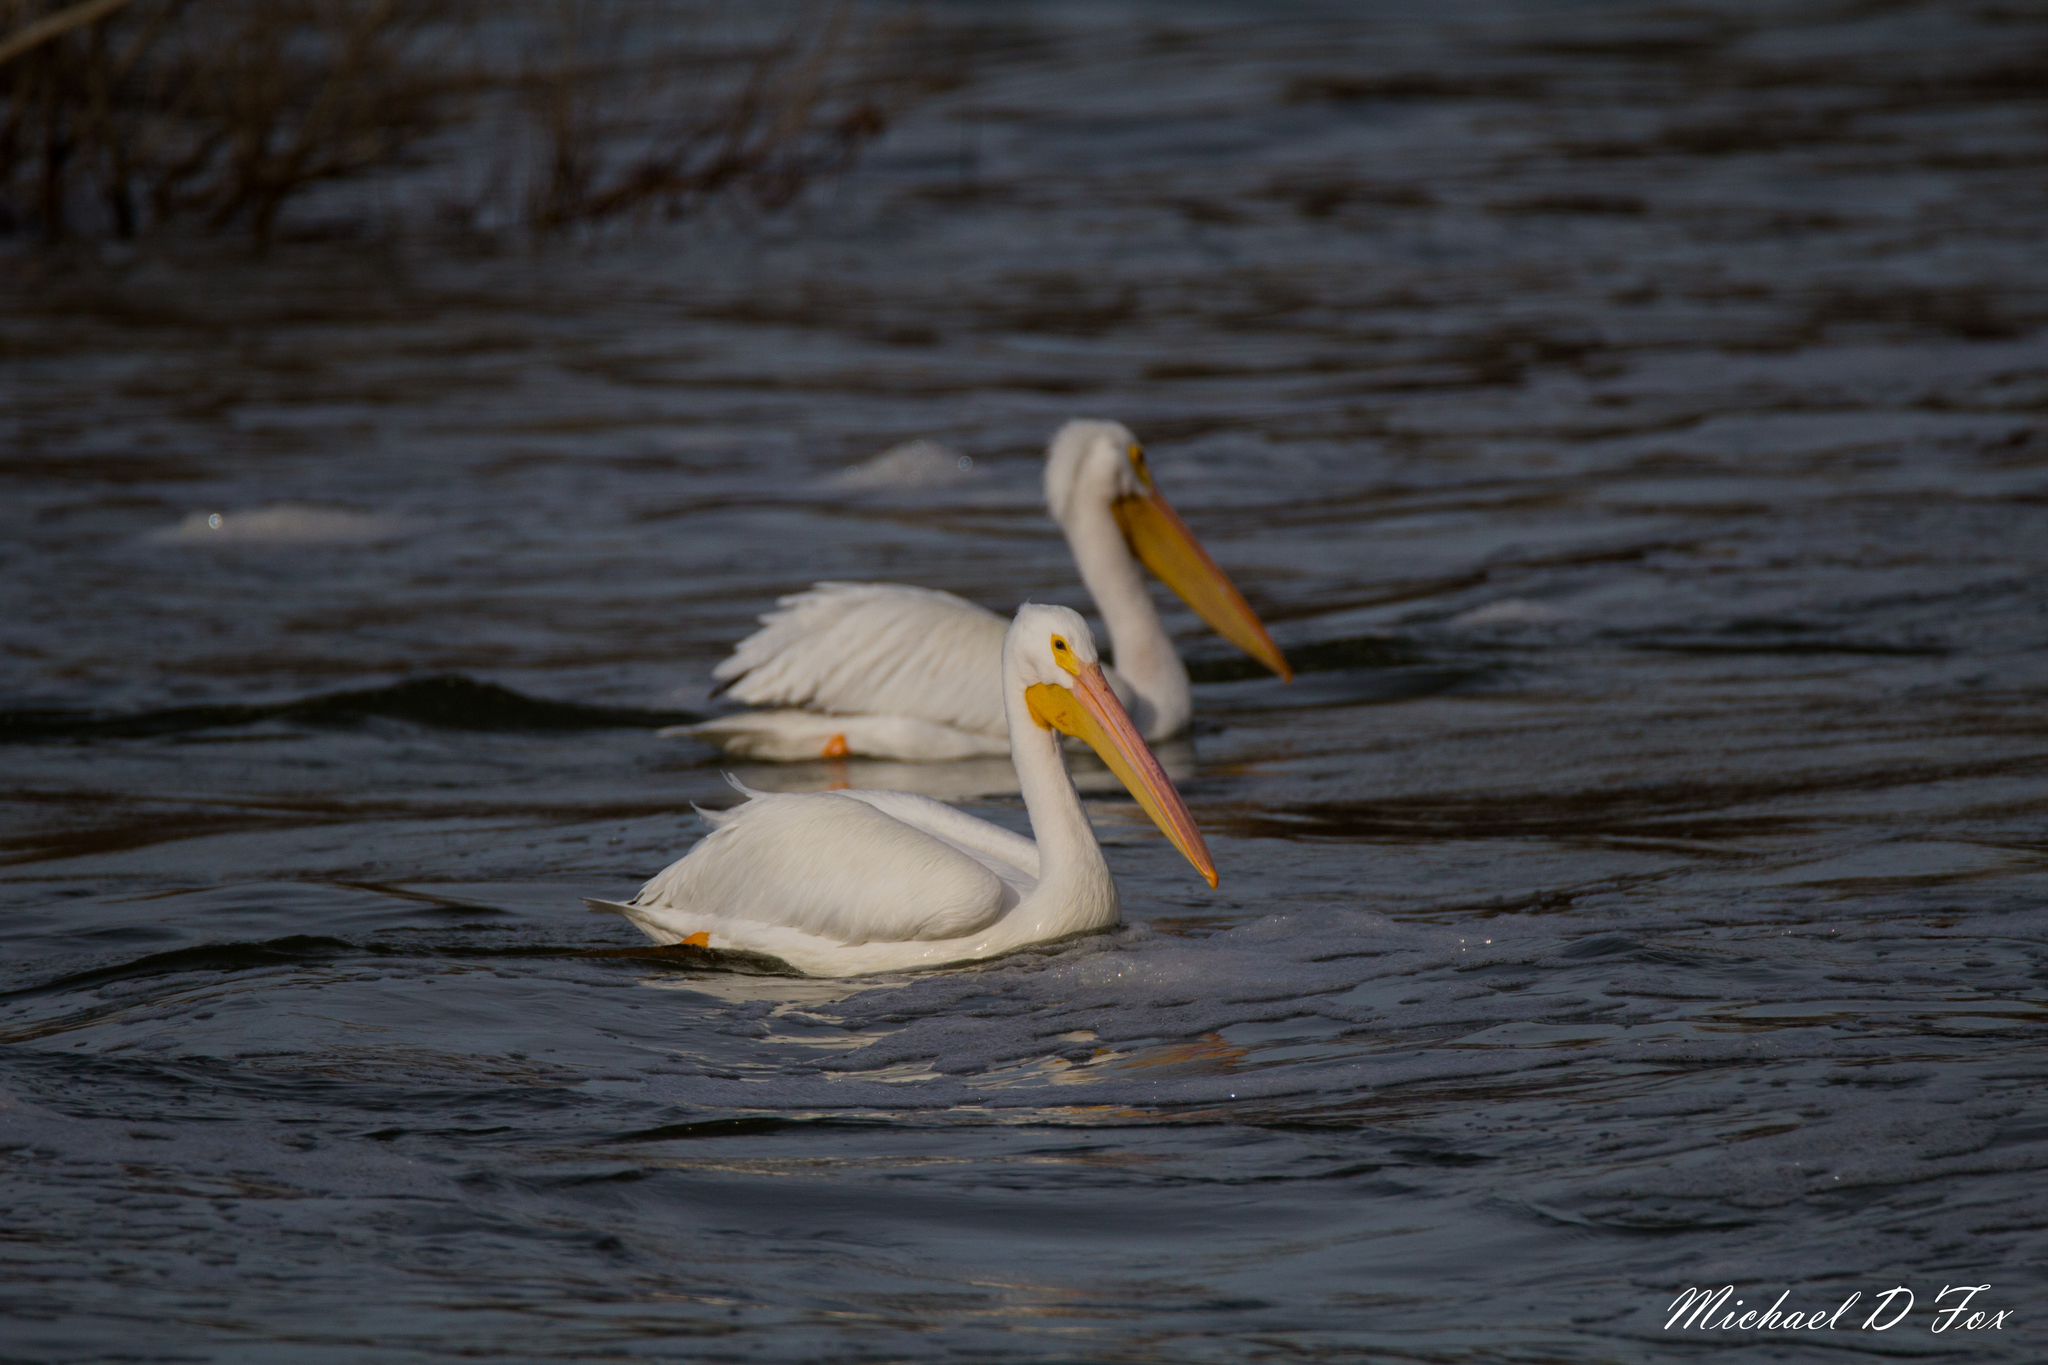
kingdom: Animalia
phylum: Chordata
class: Aves
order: Pelecaniformes
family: Pelecanidae
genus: Pelecanus
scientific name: Pelecanus erythrorhynchos
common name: American white pelican
